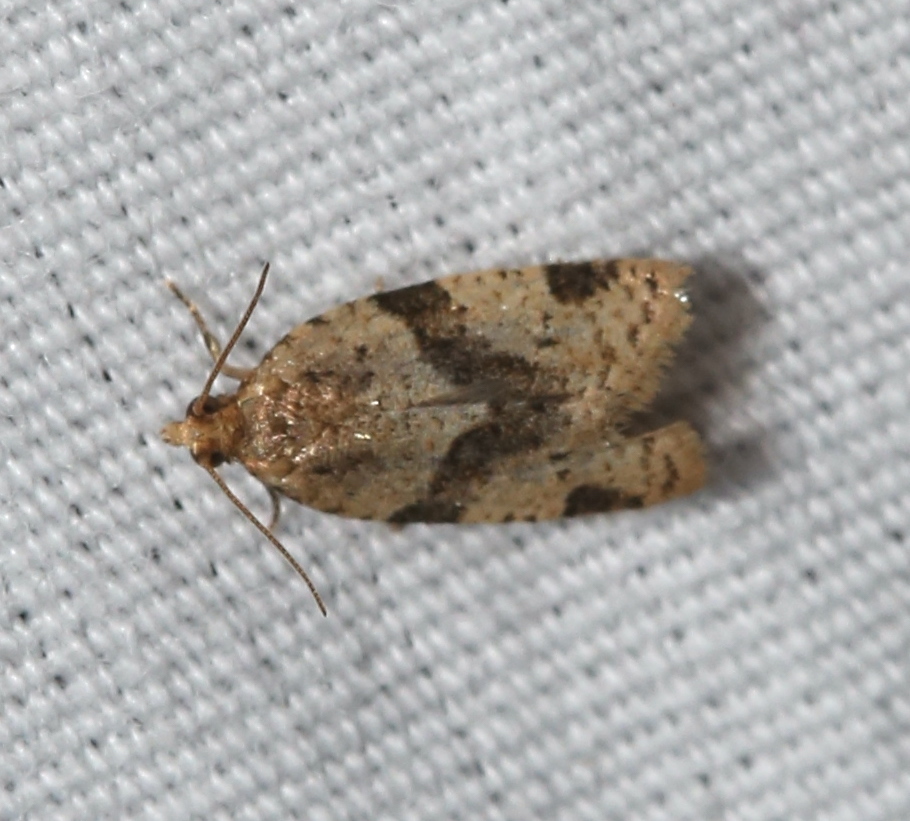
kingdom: Animalia
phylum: Arthropoda
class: Insecta
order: Lepidoptera
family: Tortricidae
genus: Clepsis
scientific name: Clepsis peritana
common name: Garden tortrix
